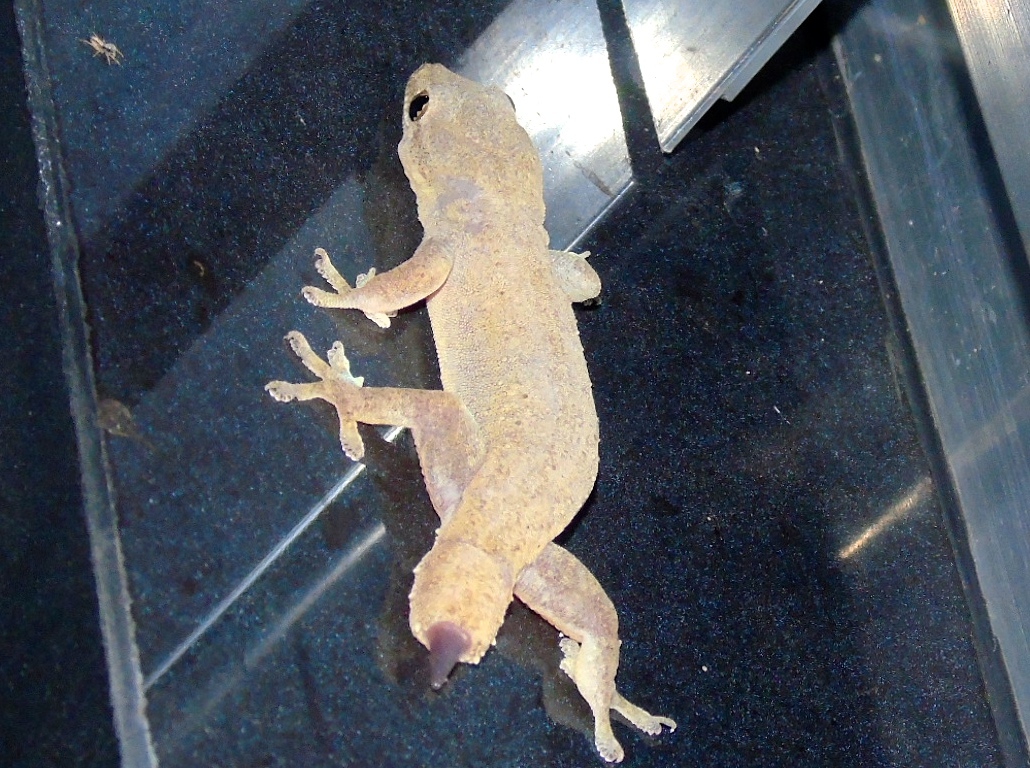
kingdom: Animalia
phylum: Chordata
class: Squamata
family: Gekkonidae
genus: Hemidactylus
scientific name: Hemidactylus frenatus
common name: Common house gecko
